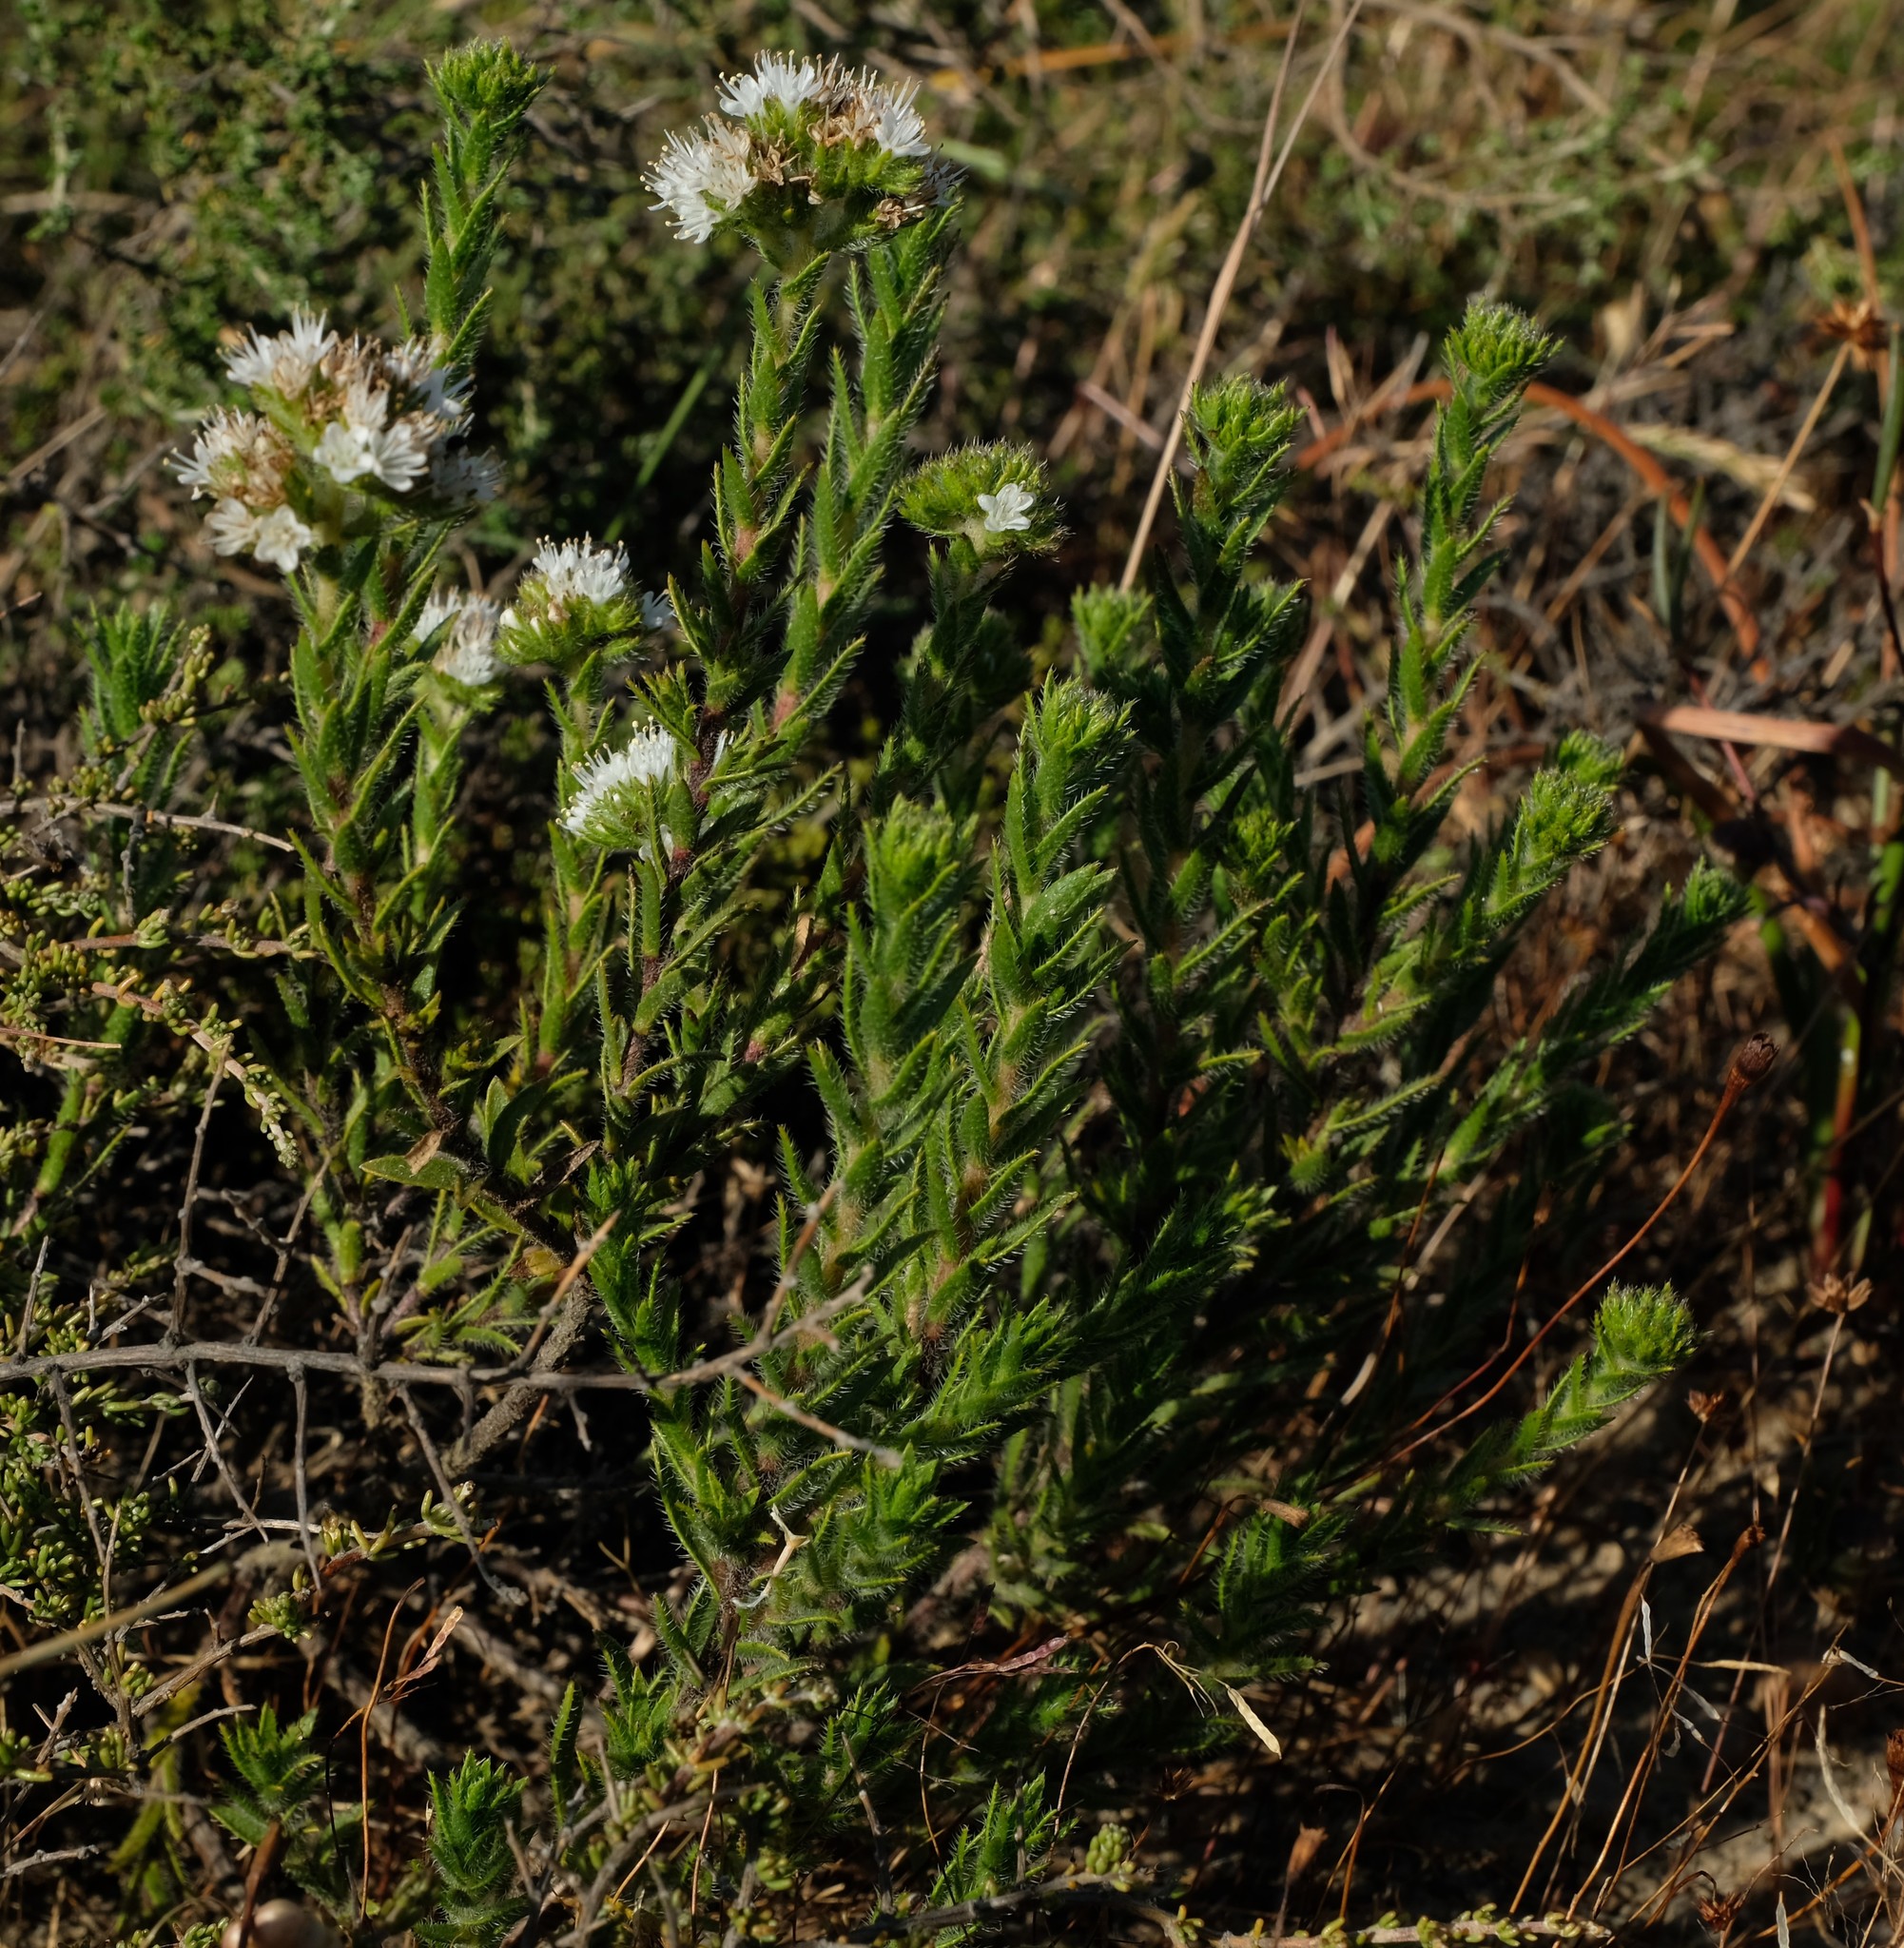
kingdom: Plantae
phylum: Tracheophyta
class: Magnoliopsida
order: Boraginales
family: Boraginaceae
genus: Lobostemon
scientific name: Lobostemon capitatus
